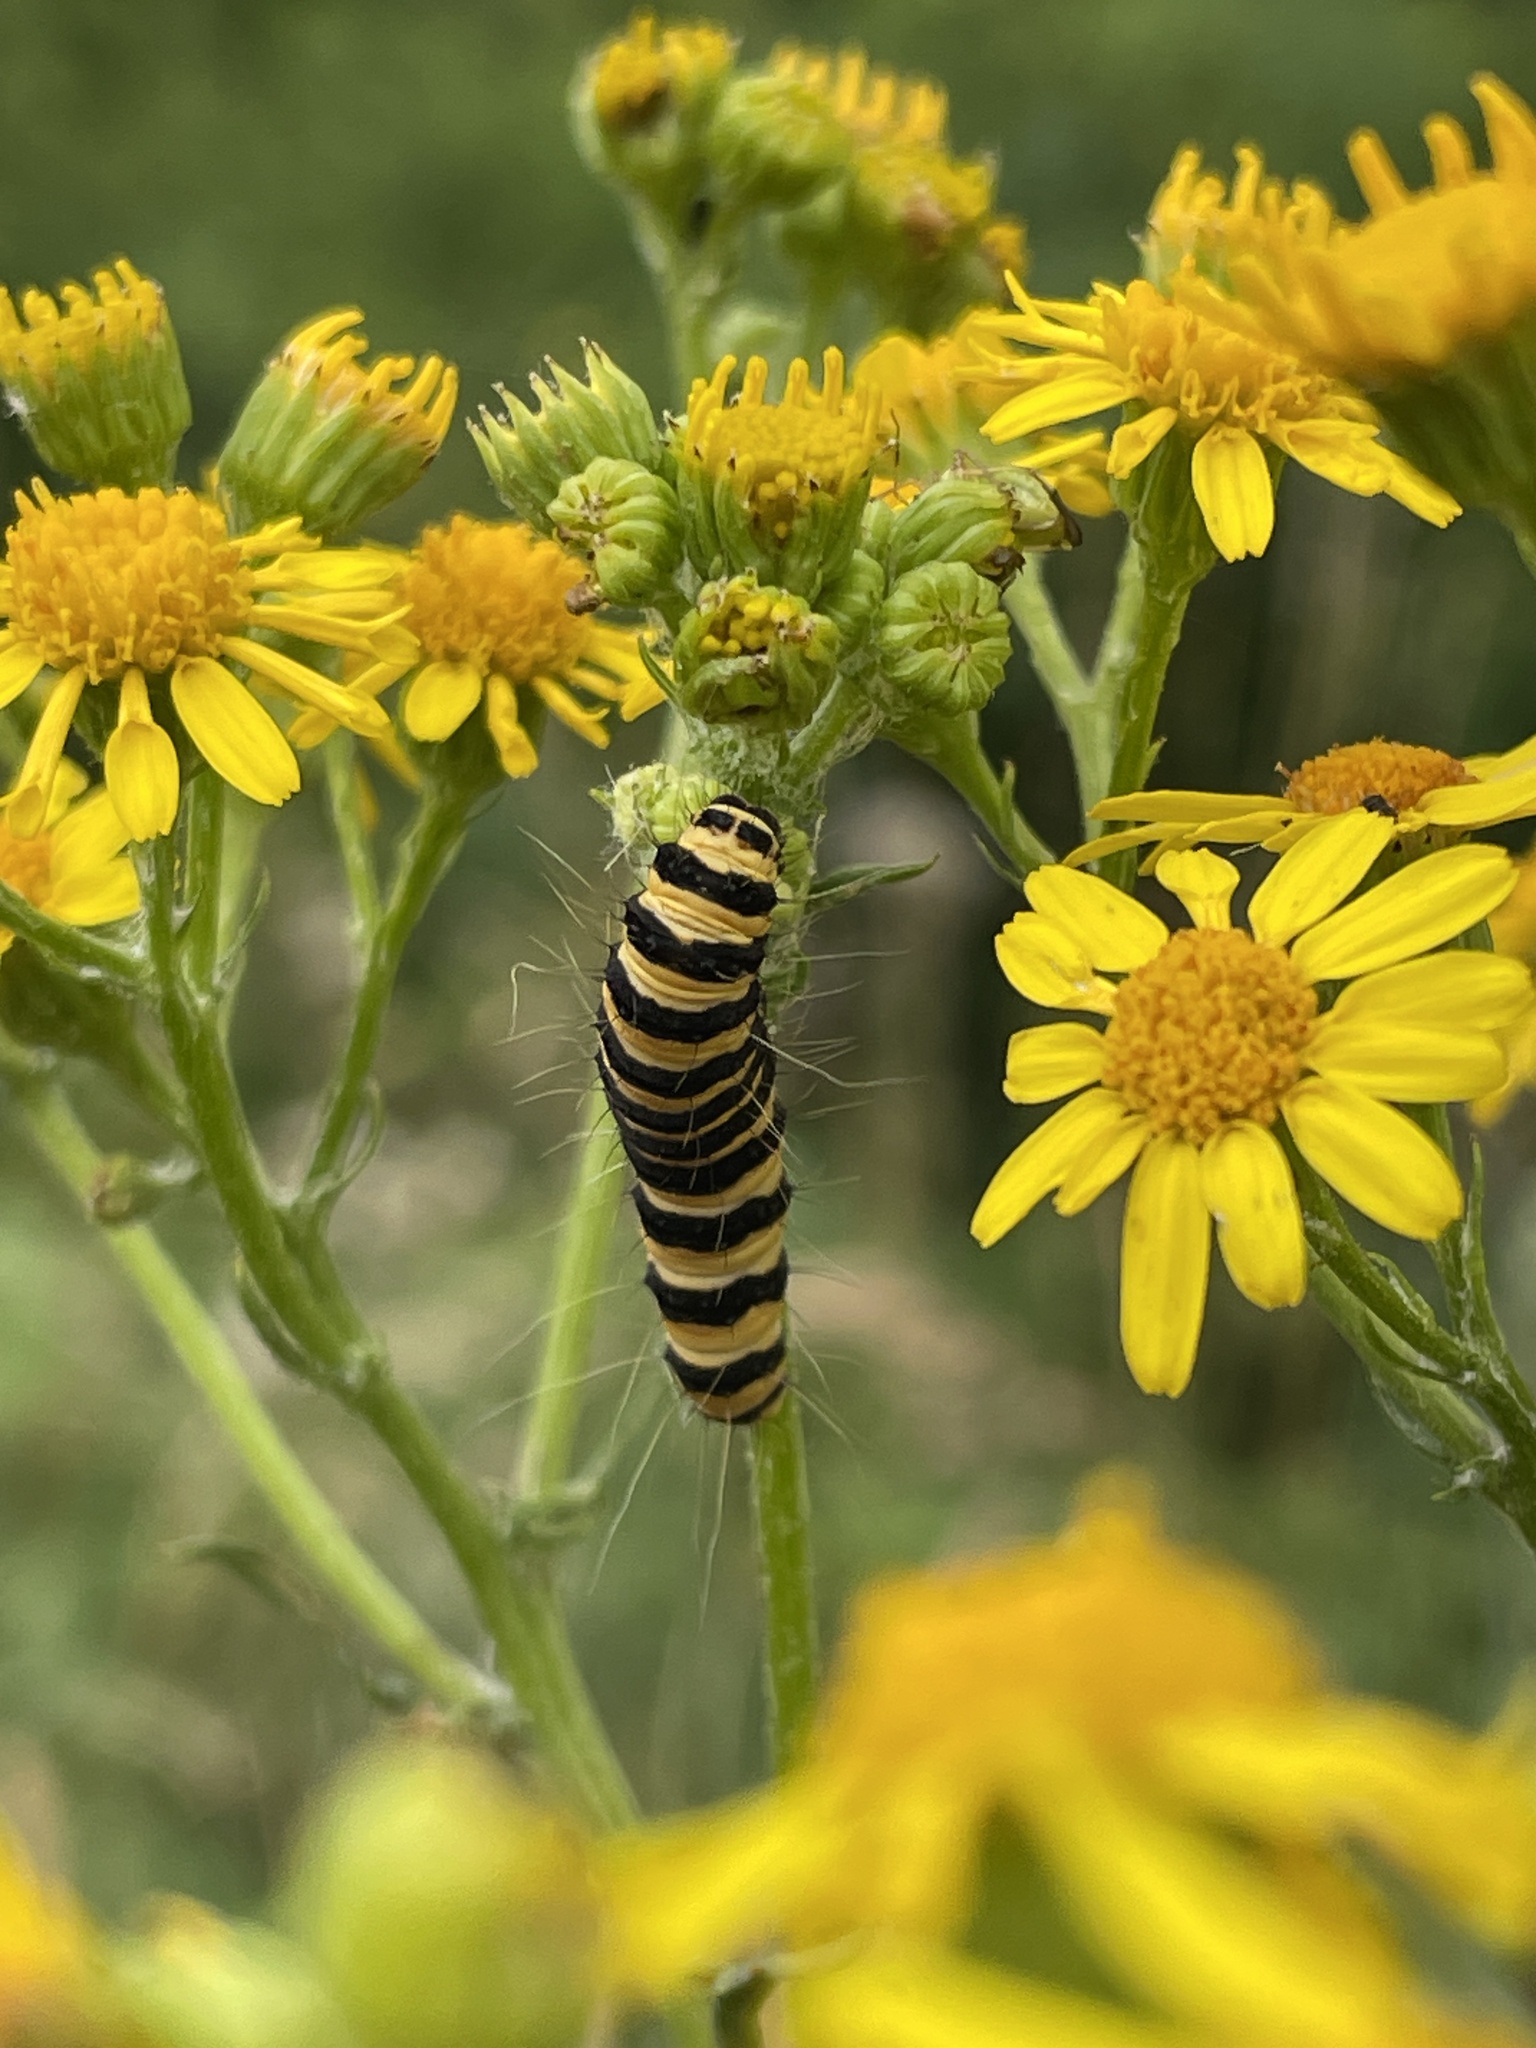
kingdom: Animalia
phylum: Arthropoda
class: Insecta
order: Lepidoptera
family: Erebidae
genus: Tyria
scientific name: Tyria jacobaeae
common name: Cinnabar
